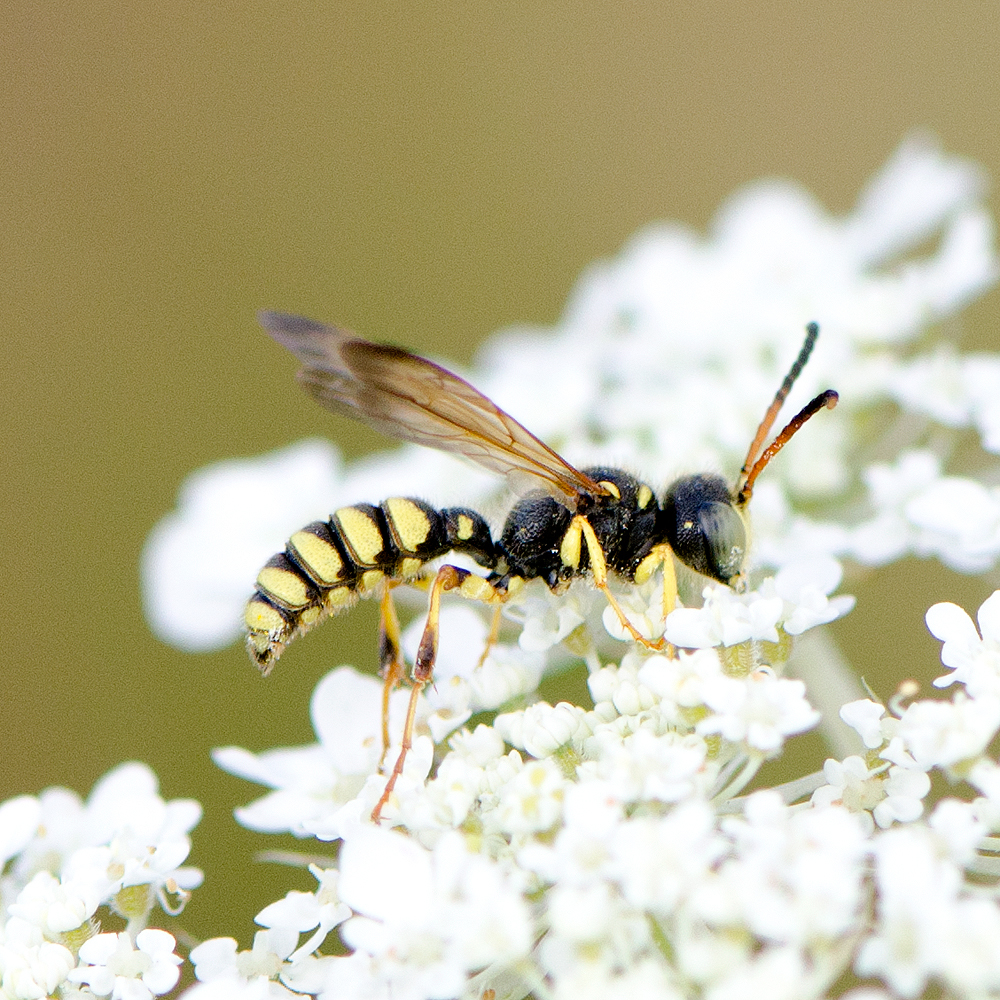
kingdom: Animalia
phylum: Arthropoda
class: Insecta
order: Hymenoptera
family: Crabronidae
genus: Cerceris
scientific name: Cerceris sextoides
